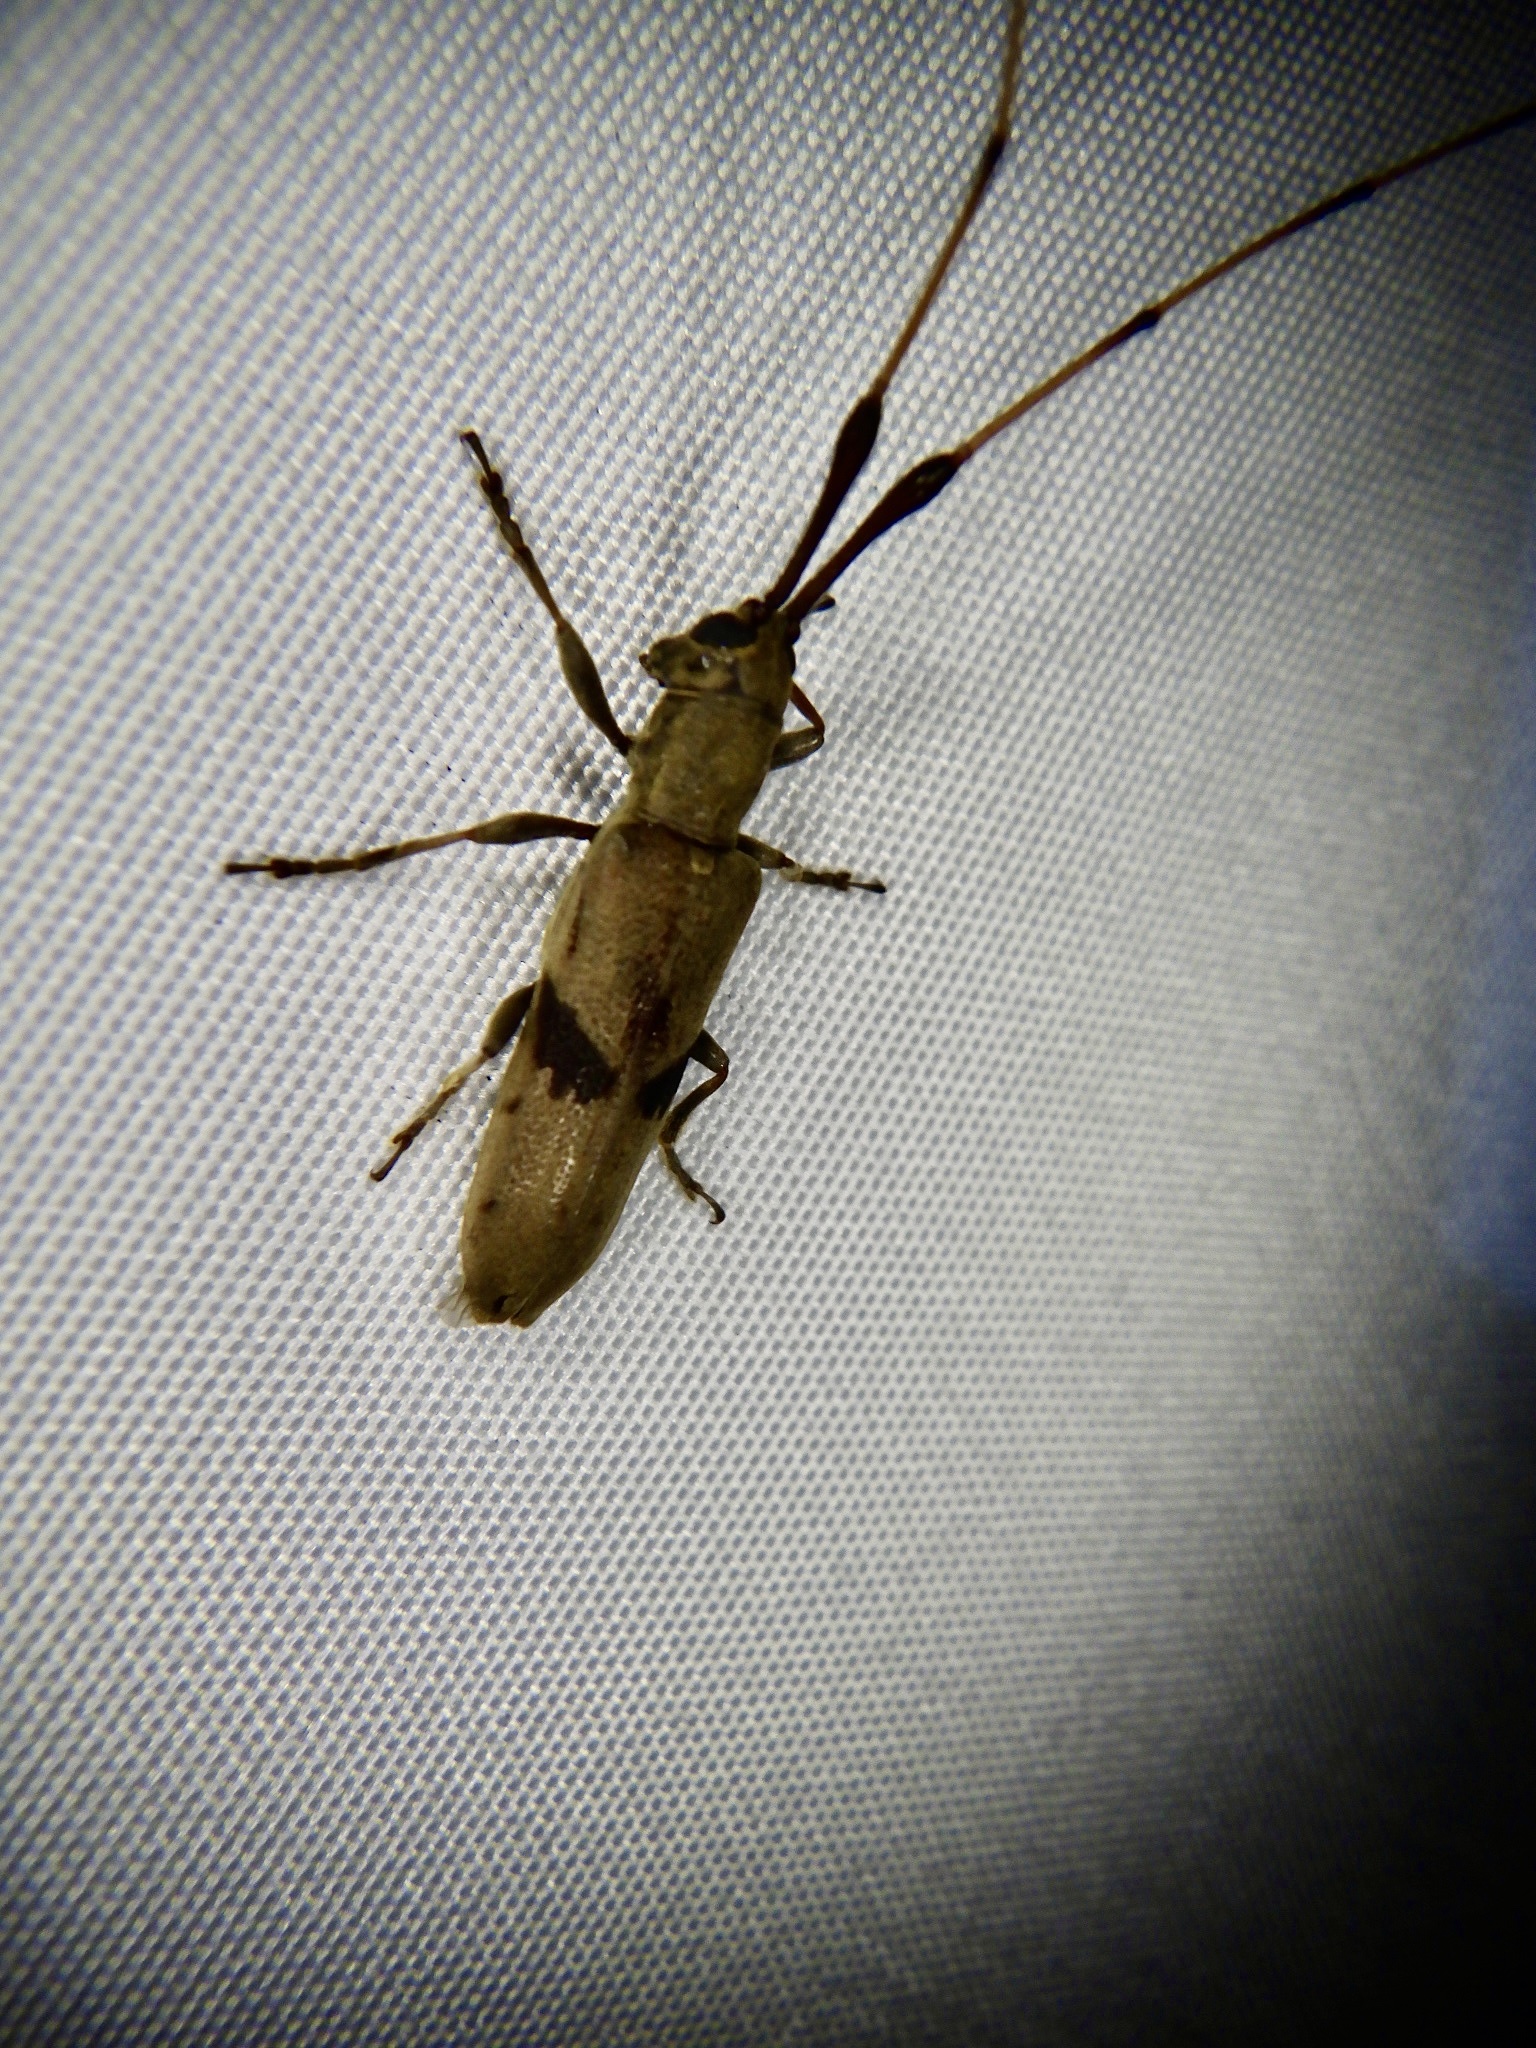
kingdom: Animalia
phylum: Arthropoda
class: Insecta
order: Coleoptera
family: Cerambycidae
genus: Uraecha
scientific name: Uraecha bimaculata
